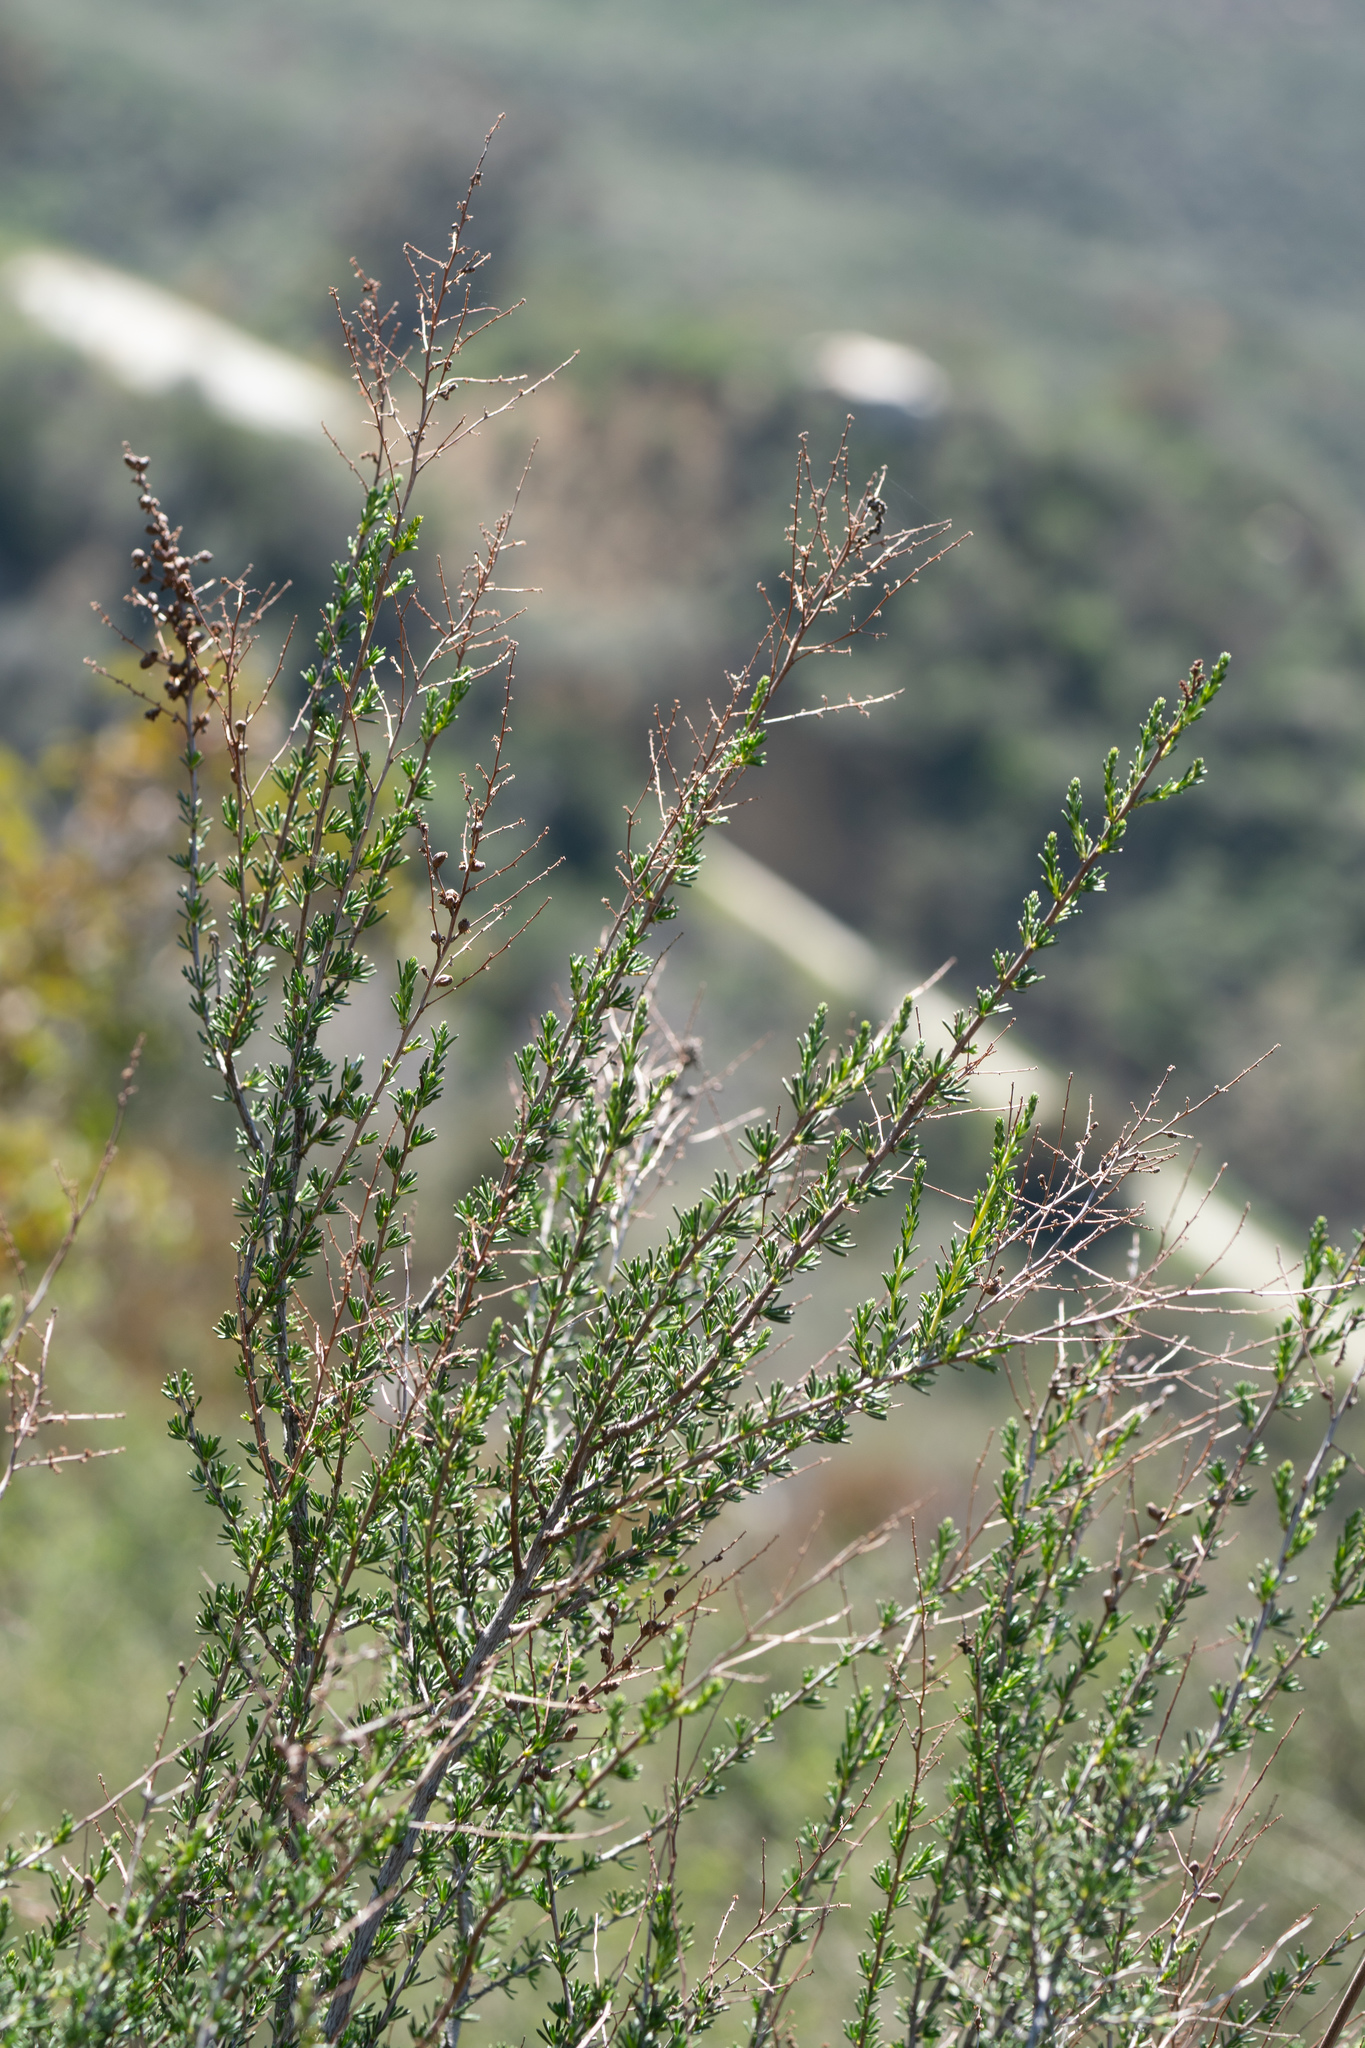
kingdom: Plantae
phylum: Tracheophyta
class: Magnoliopsida
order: Rosales
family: Rosaceae
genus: Adenostoma
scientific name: Adenostoma fasciculatum
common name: Chamise
